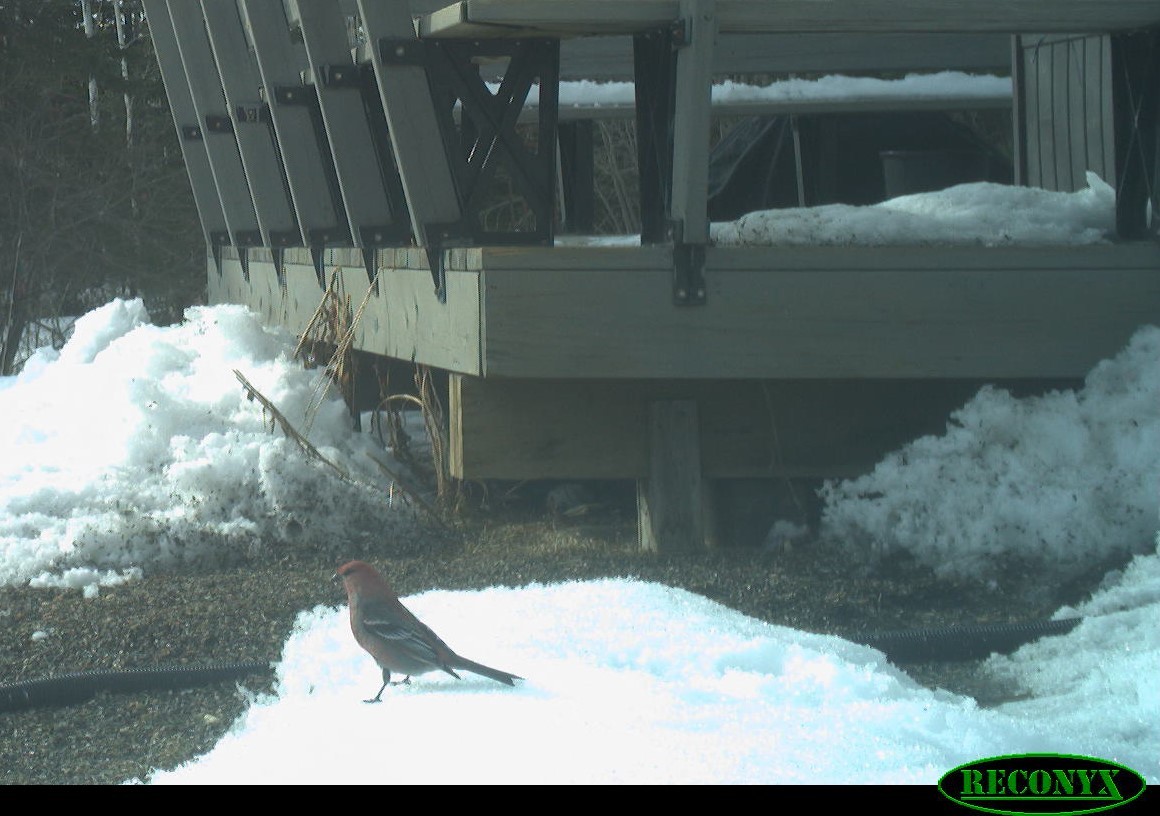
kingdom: Animalia
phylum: Chordata
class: Aves
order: Passeriformes
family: Fringillidae
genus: Pinicola
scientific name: Pinicola enucleator
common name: Pine grosbeak
